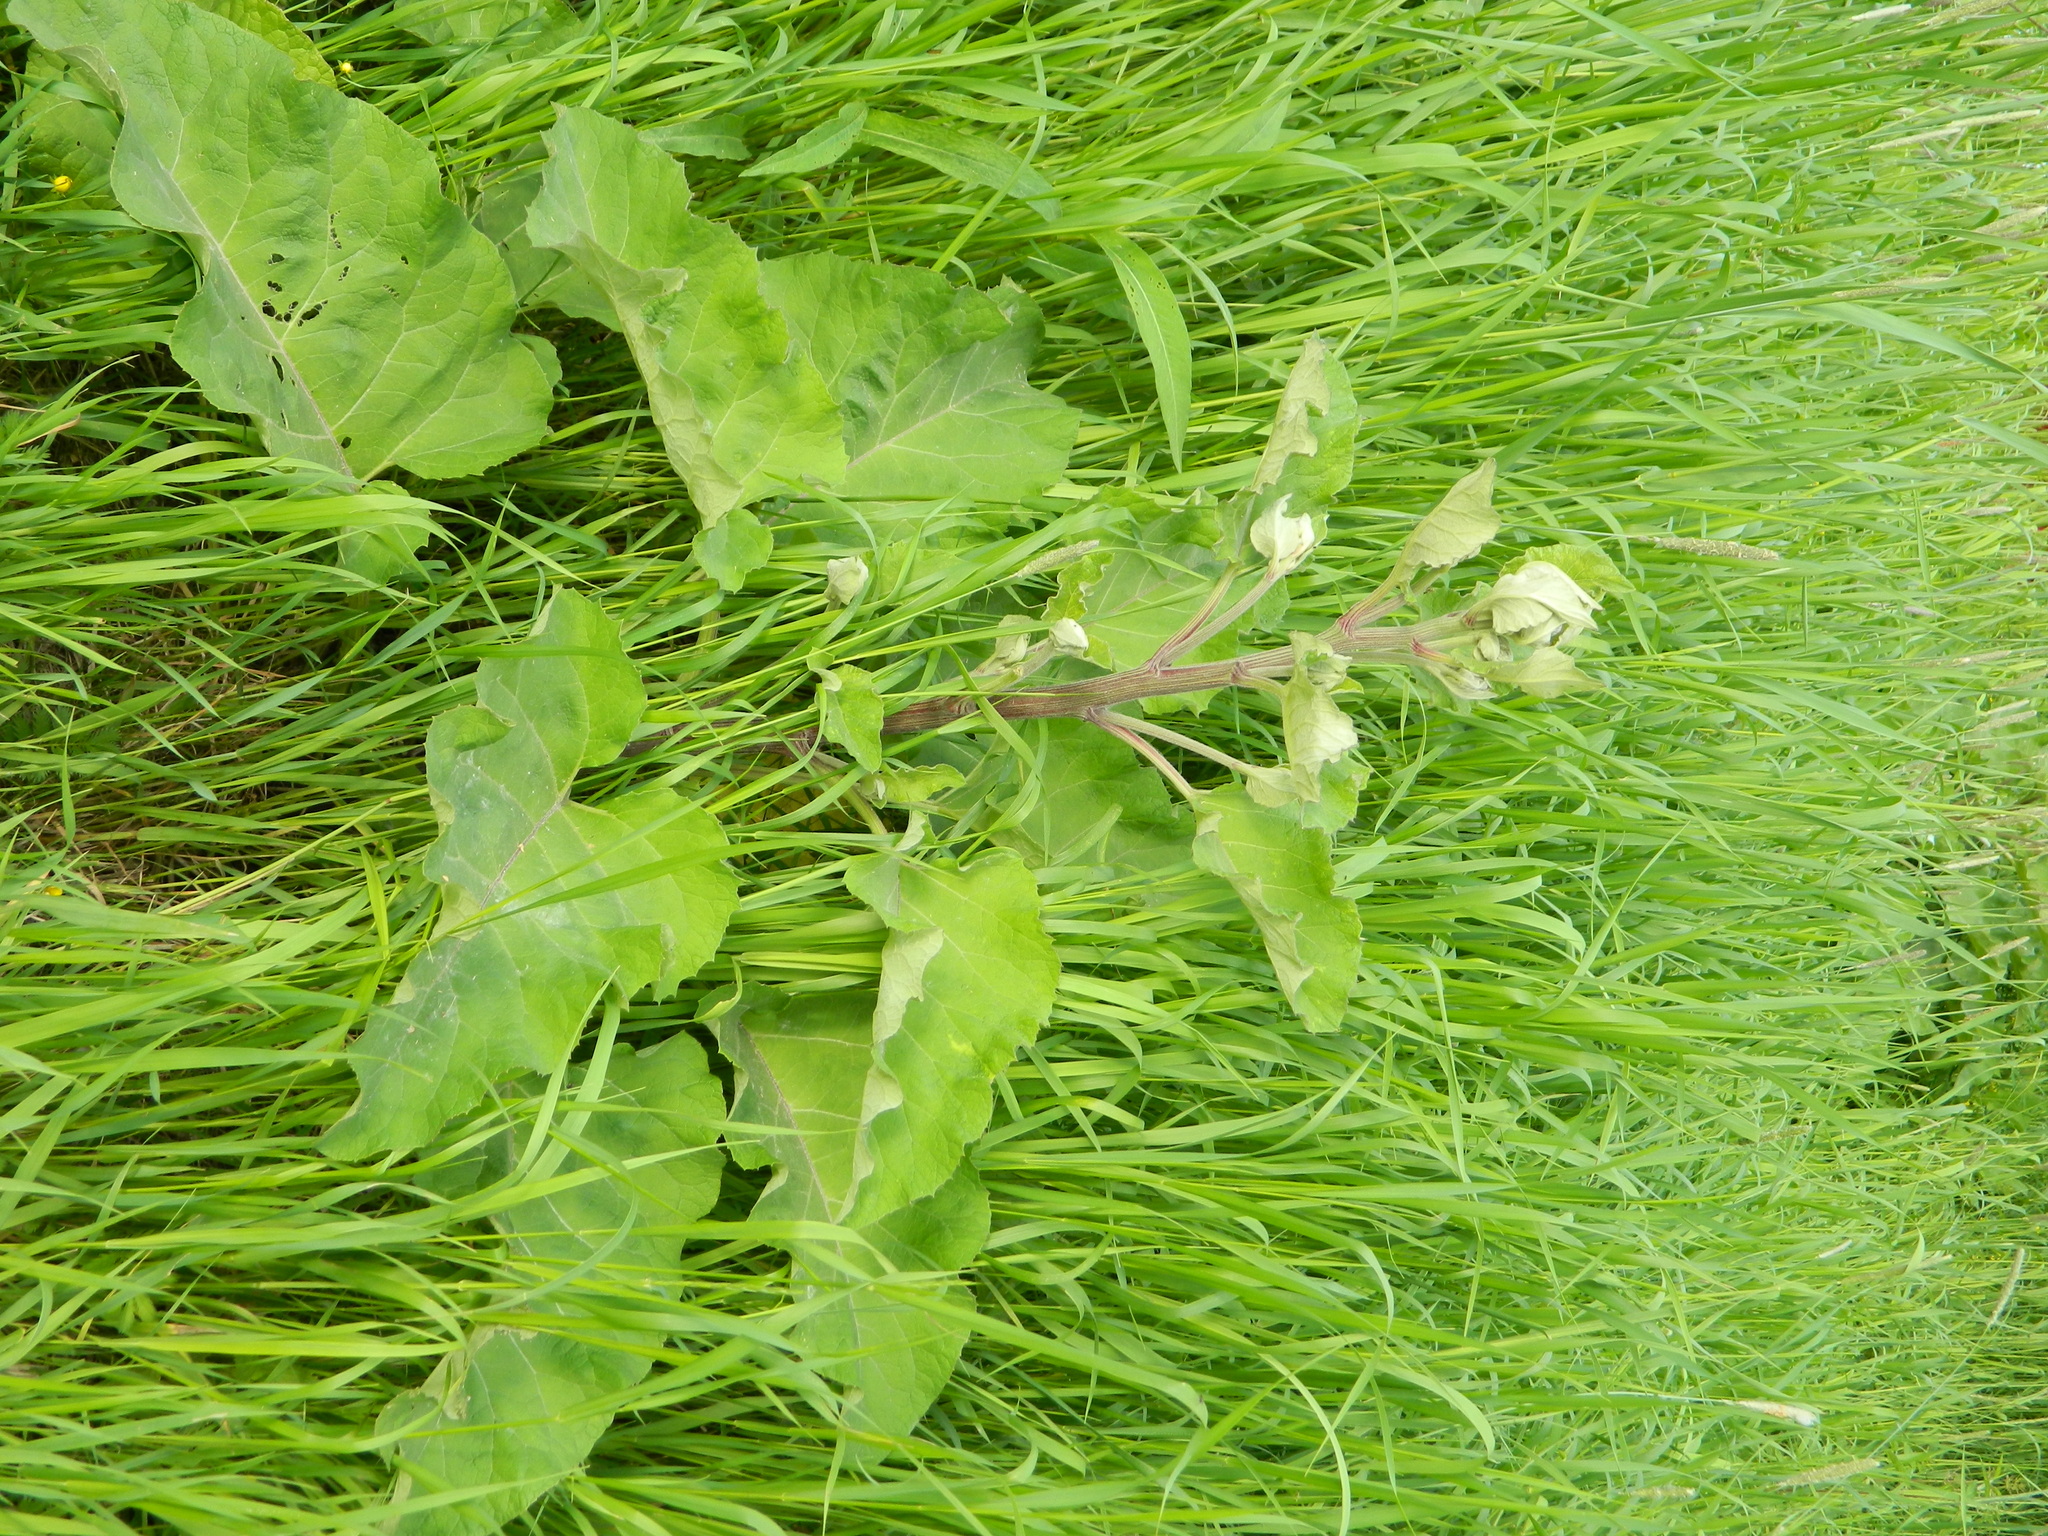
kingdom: Plantae
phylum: Tracheophyta
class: Magnoliopsida
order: Asterales
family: Asteraceae
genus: Arctium
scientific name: Arctium tomentosum
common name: Woolly burdock
